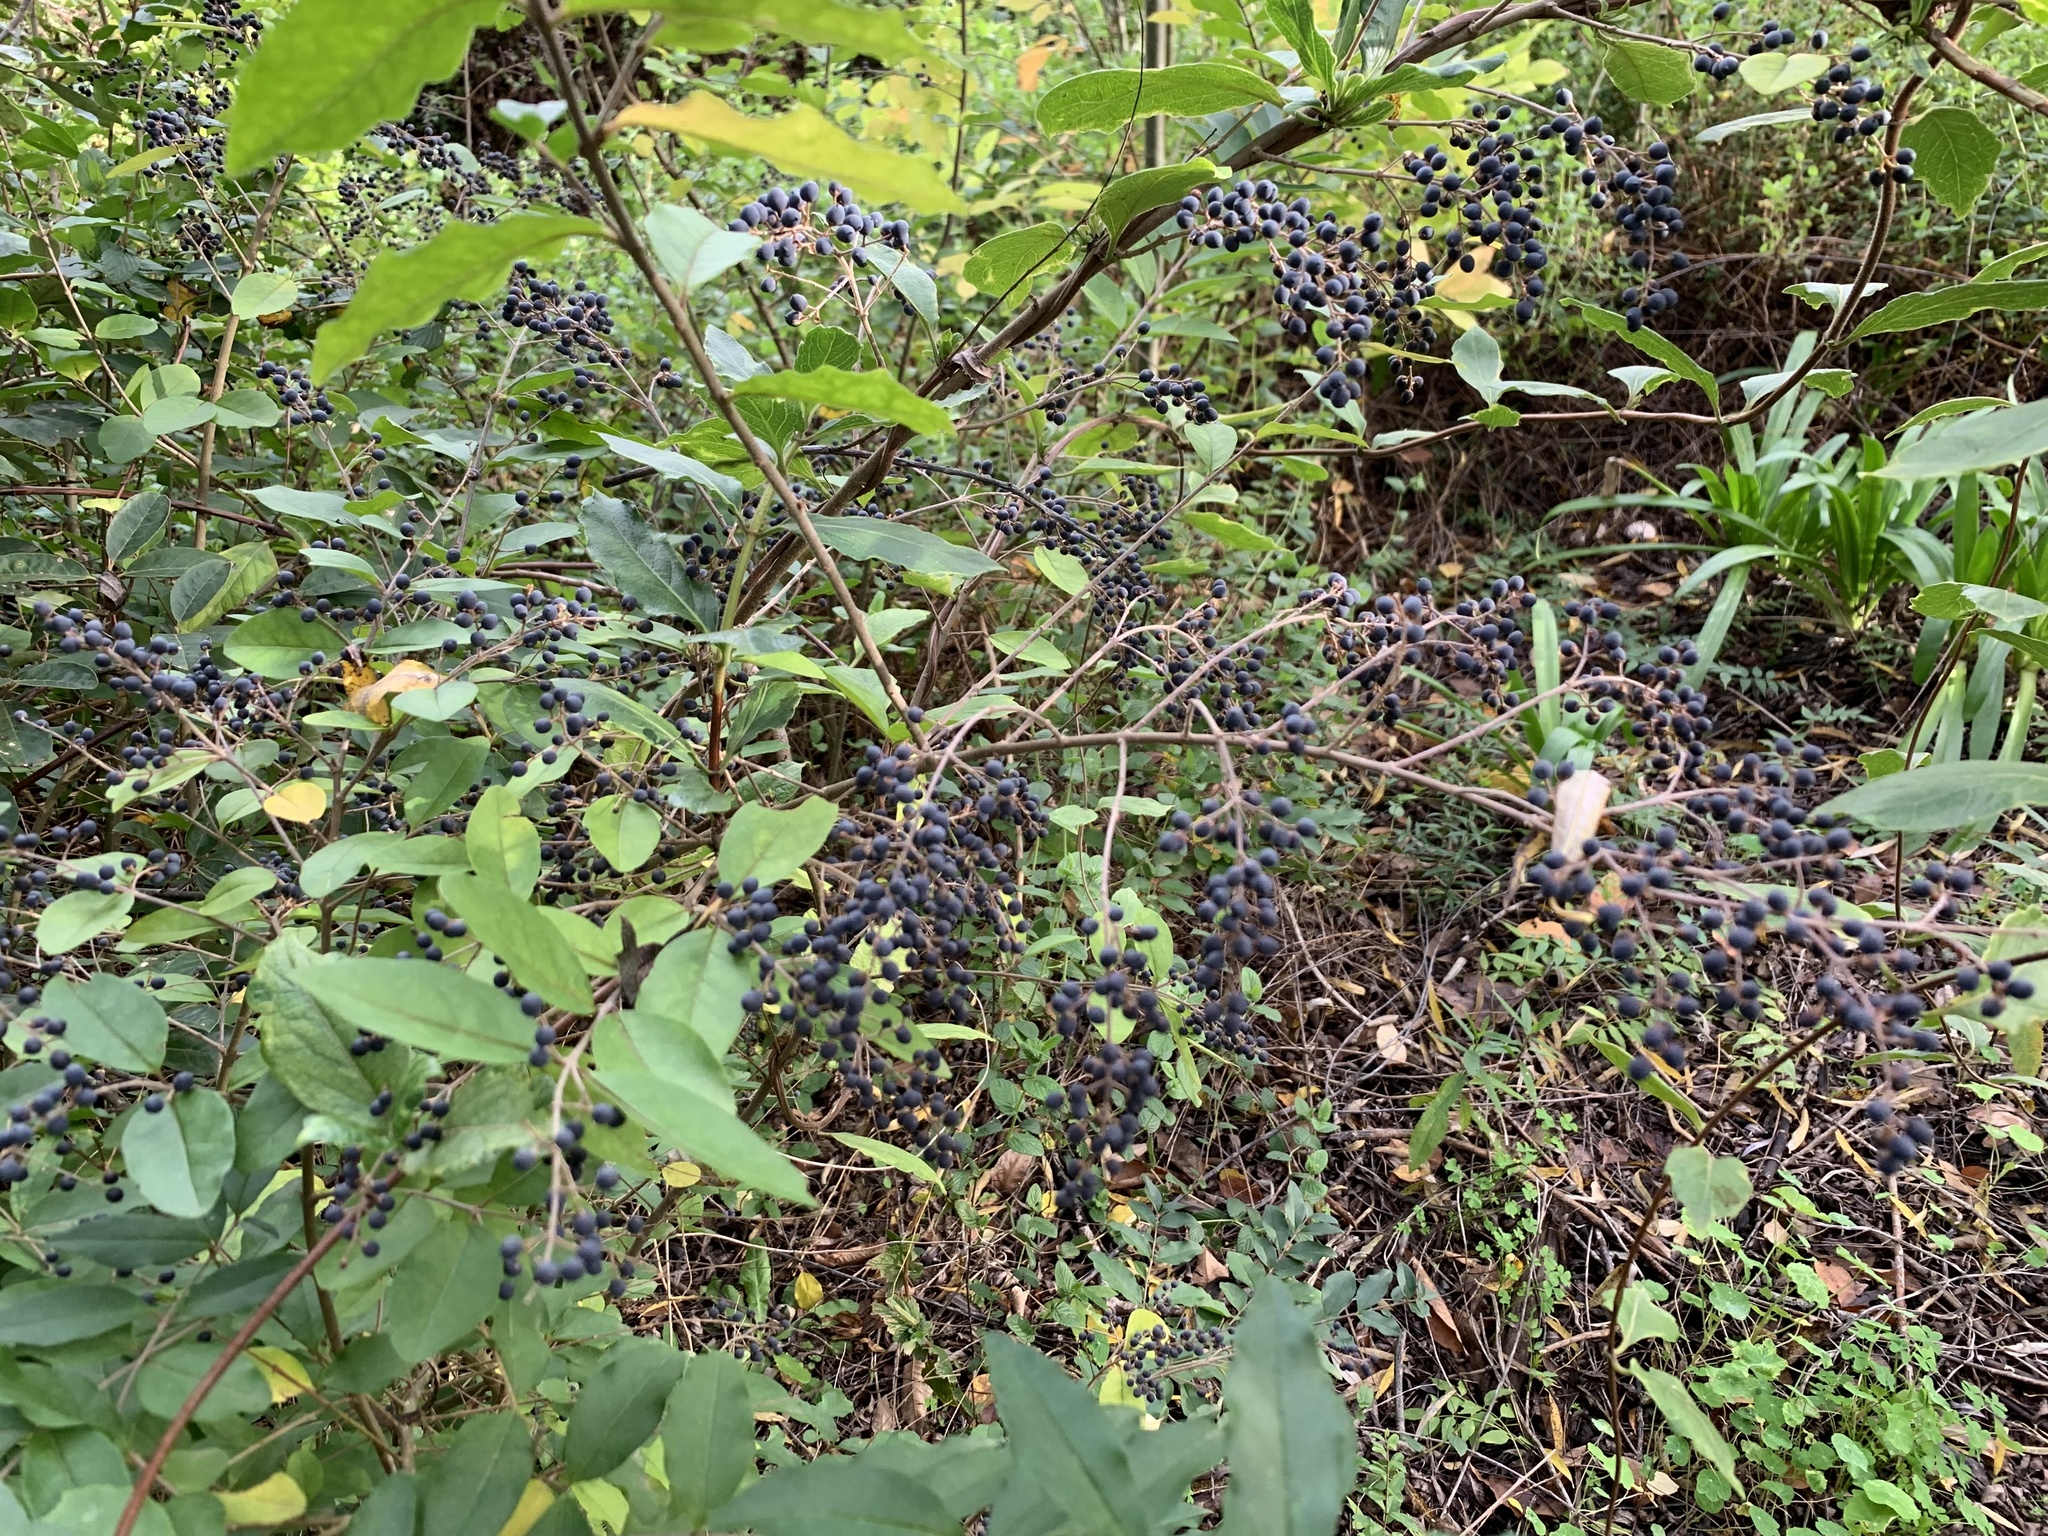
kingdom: Plantae
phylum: Tracheophyta
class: Magnoliopsida
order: Lamiales
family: Oleaceae
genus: Ligustrum
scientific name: Ligustrum sinense
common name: Chinese privet
